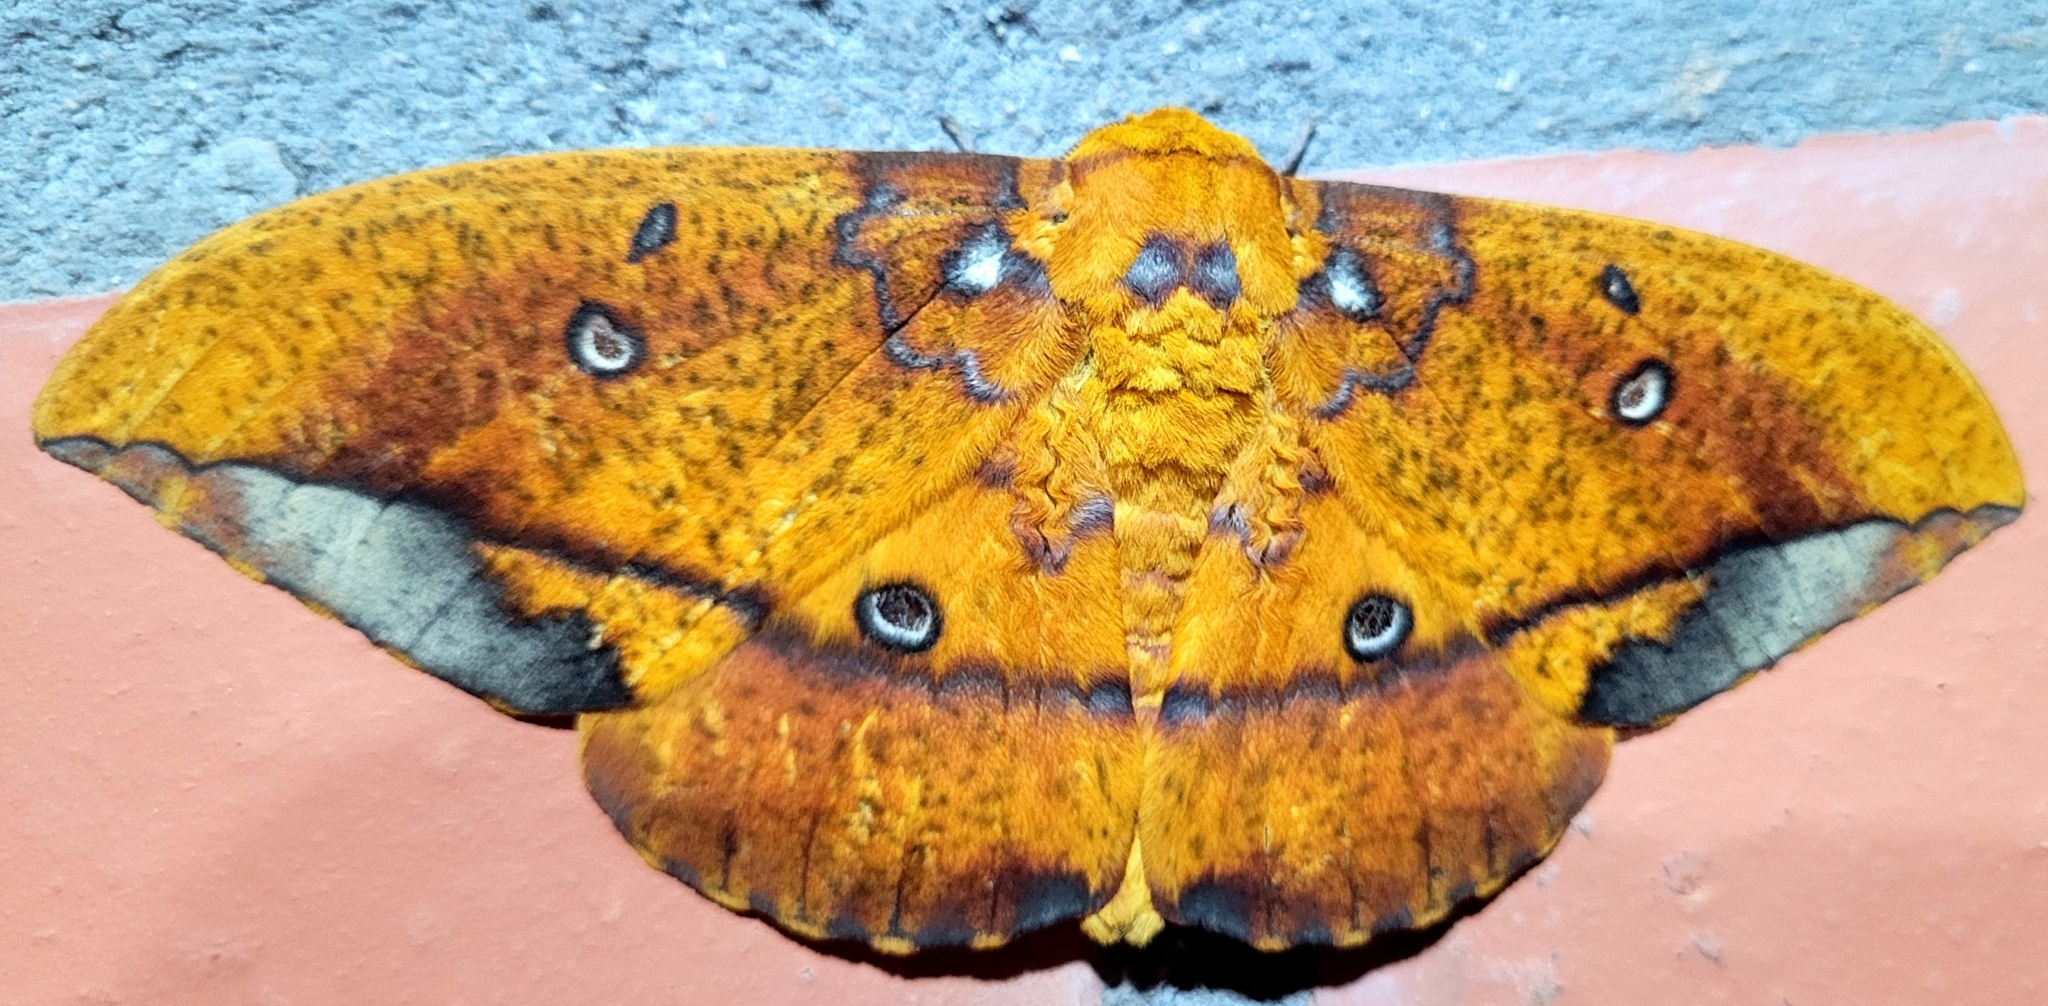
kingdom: Animalia
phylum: Arthropoda
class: Insecta
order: Lepidoptera
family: Saturniidae
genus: Eacles
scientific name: Eacles penelope
